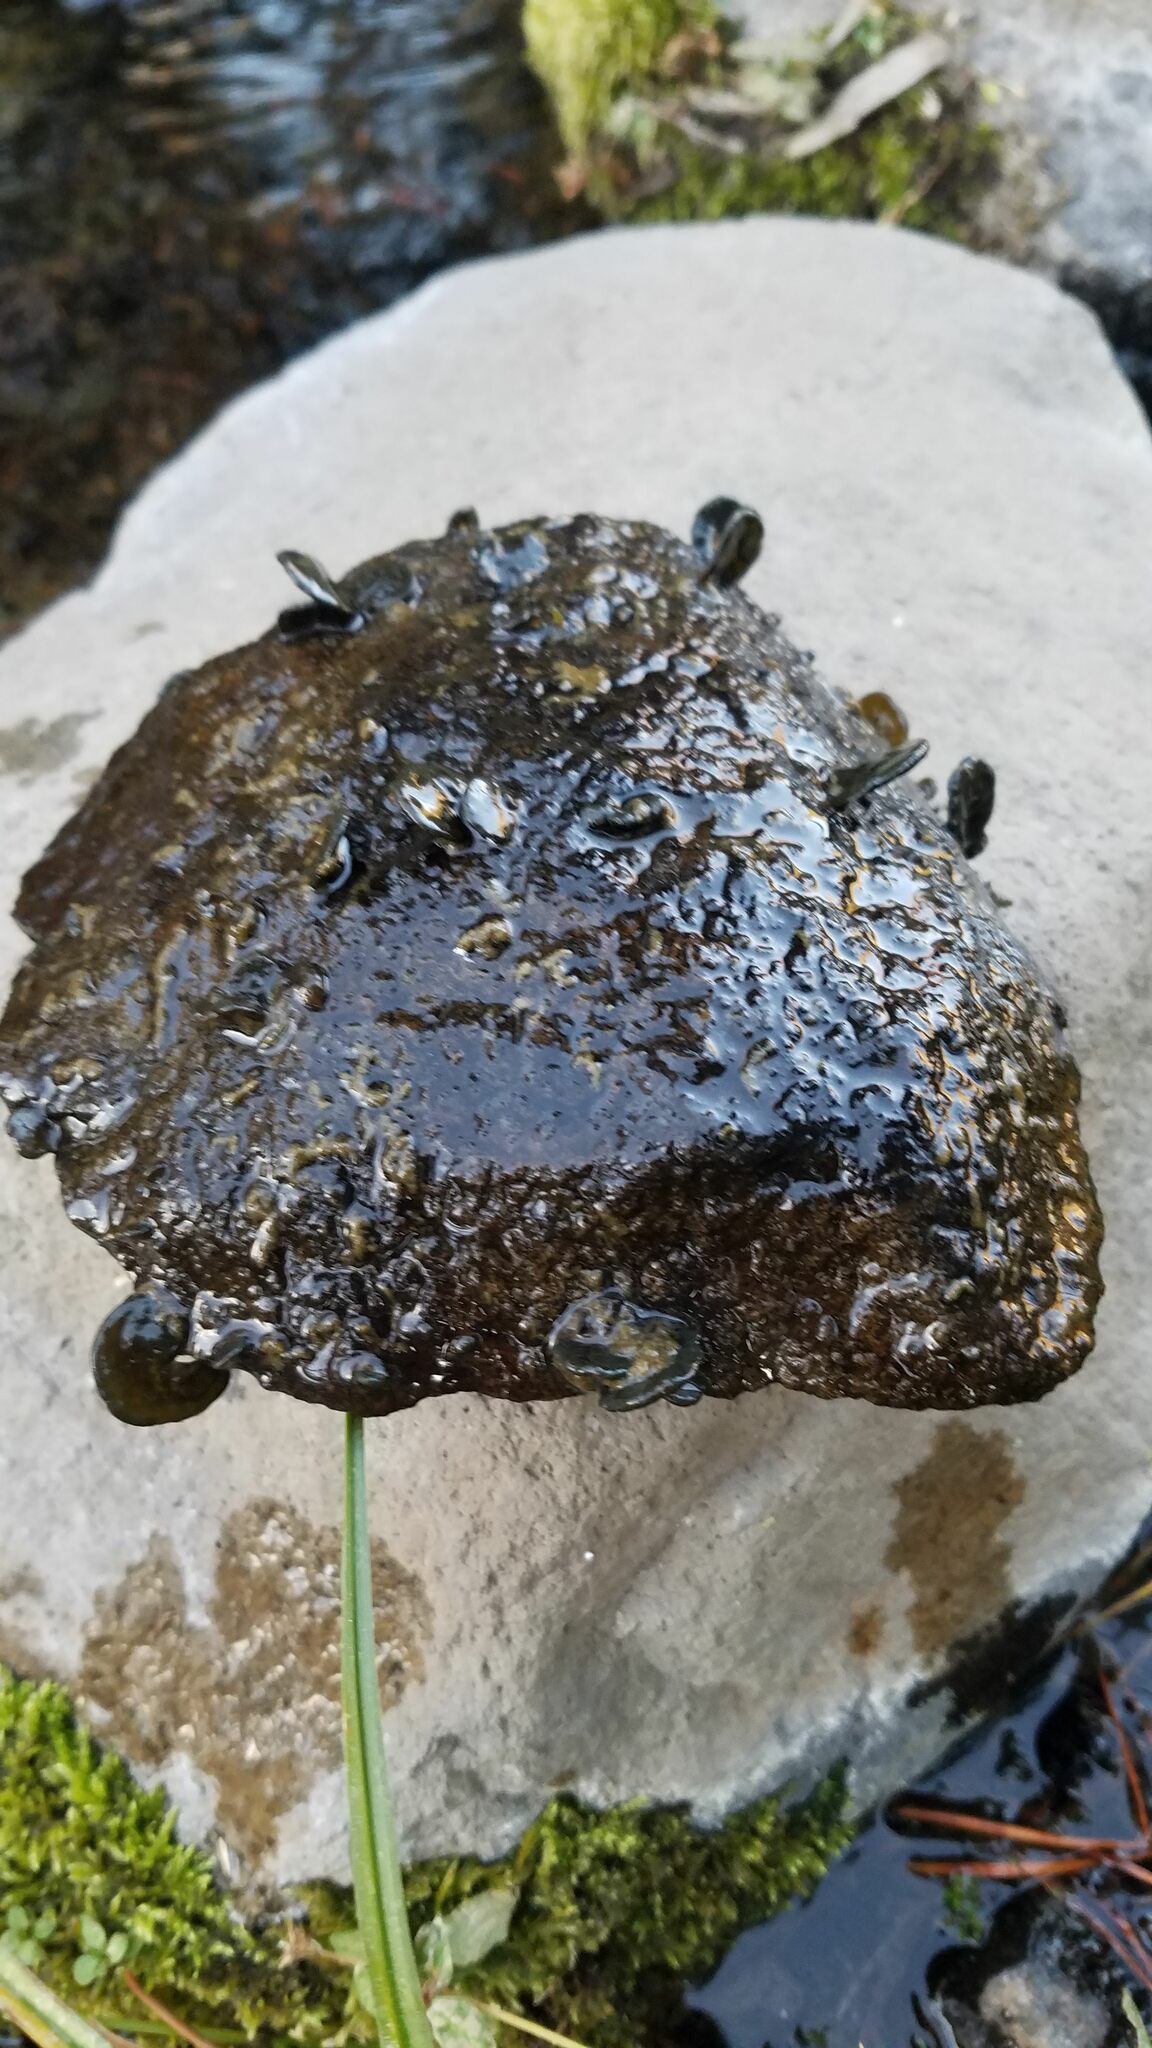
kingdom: Bacteria
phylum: Cyanobacteria
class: Cyanobacteriia
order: Cyanobacteriales
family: Nostocaceae
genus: Nostoc
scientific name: Nostoc parmelioides
